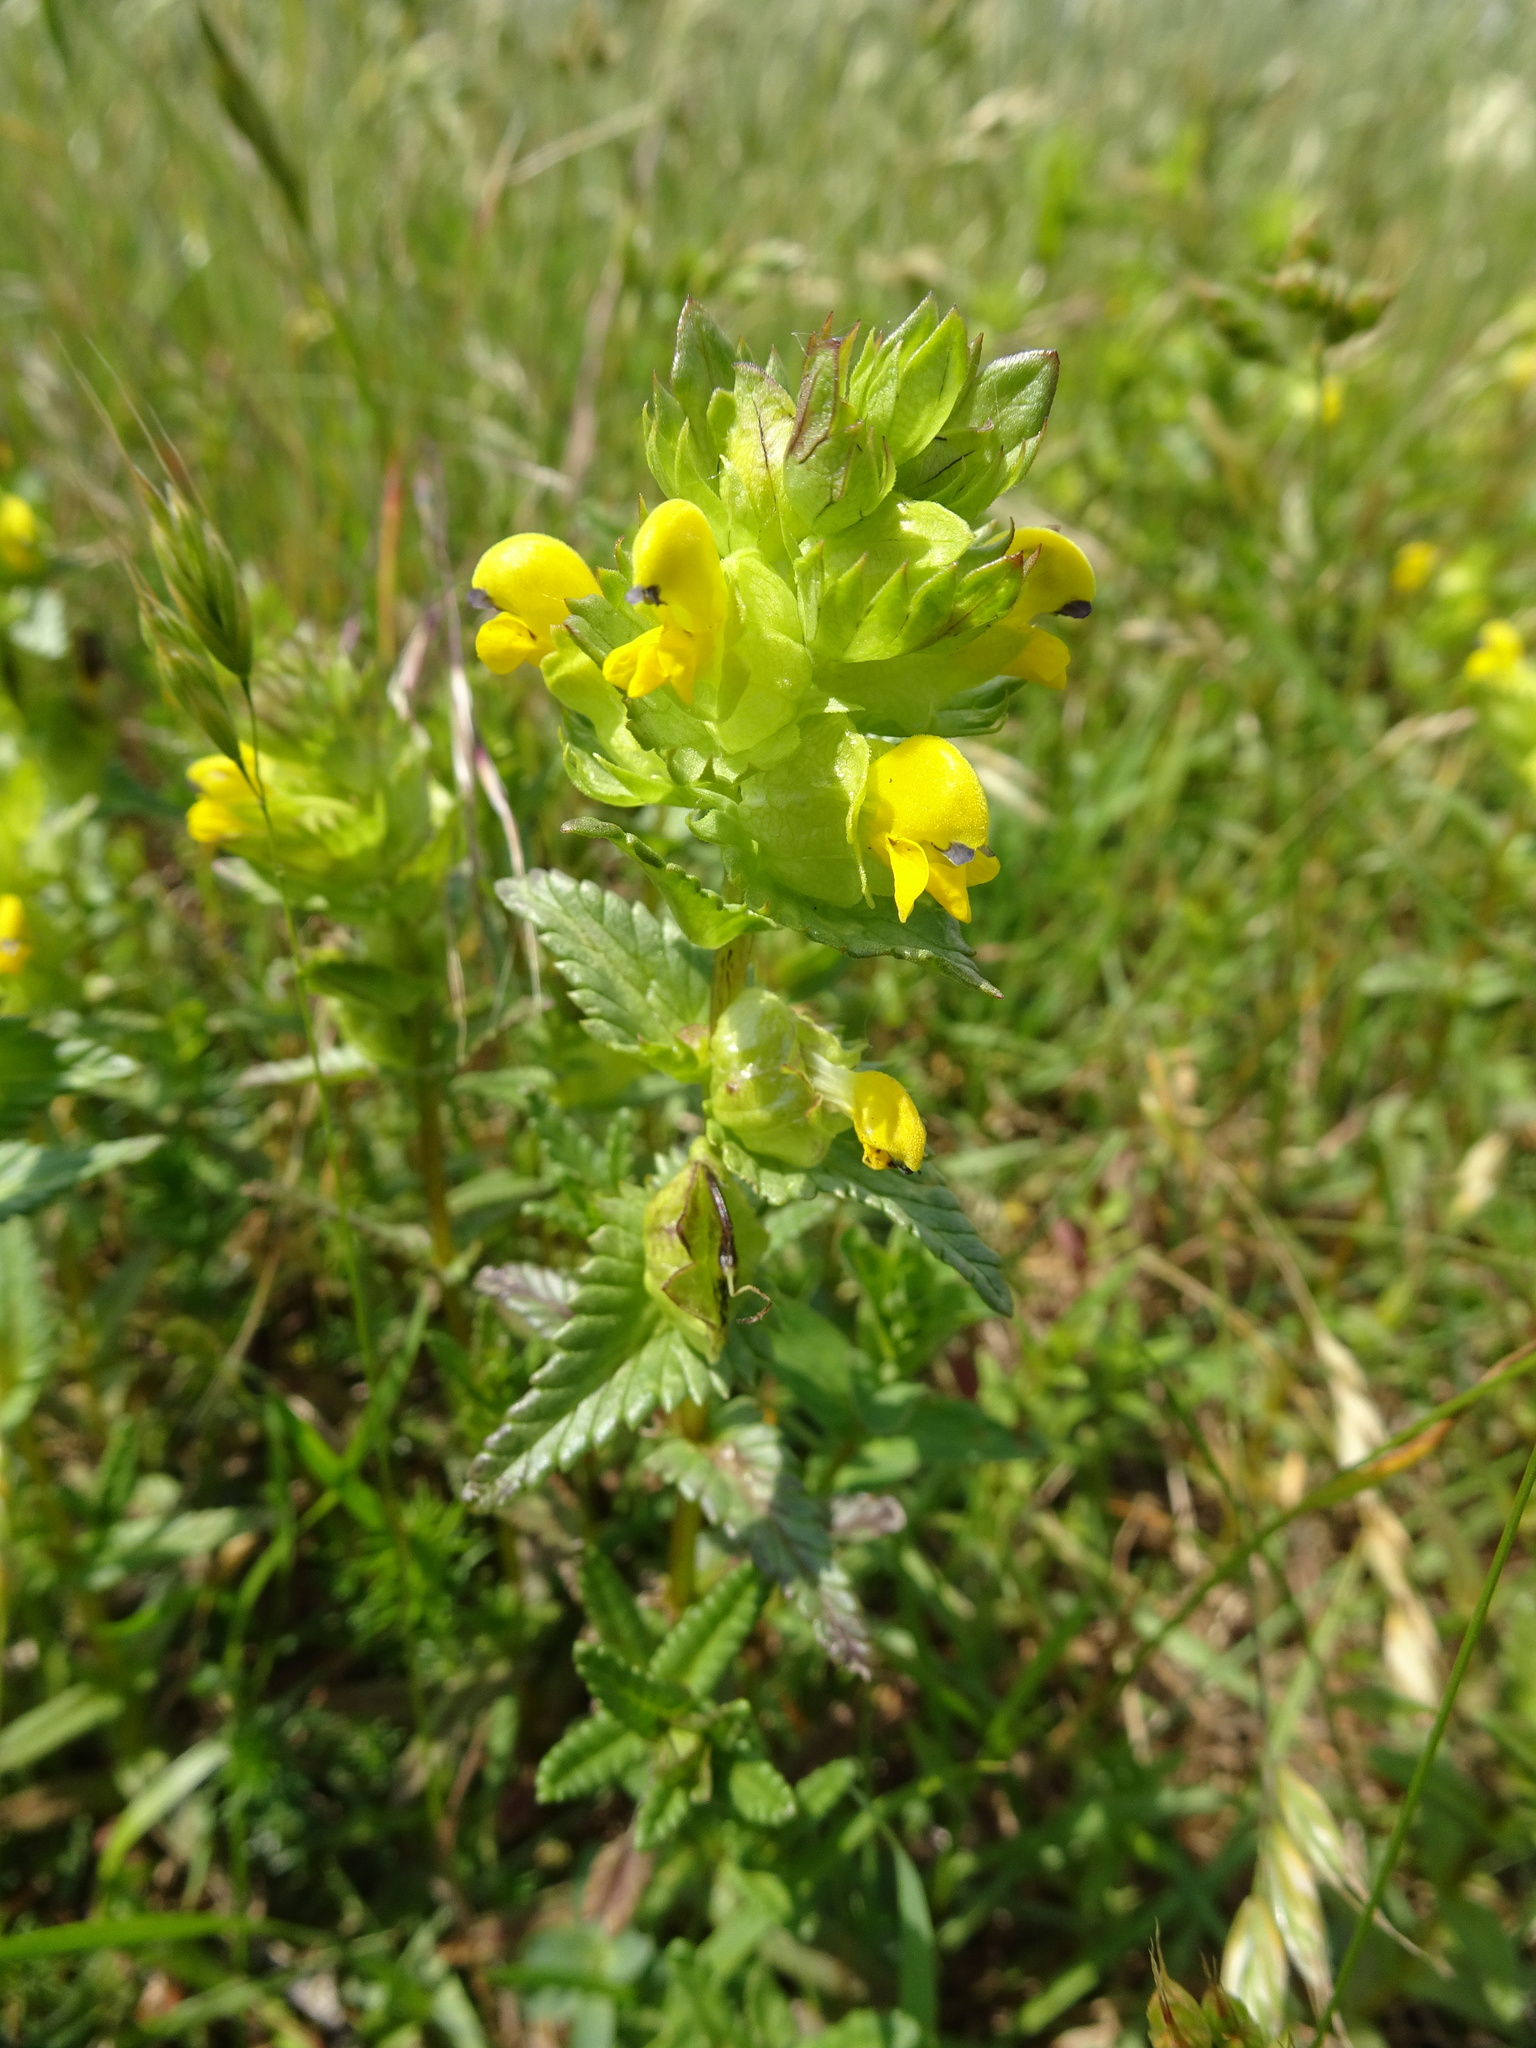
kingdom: Plantae
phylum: Tracheophyta
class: Magnoliopsida
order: Lamiales
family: Orobanchaceae
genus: Rhinanthus
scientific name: Rhinanthus minor
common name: Yellow-rattle
